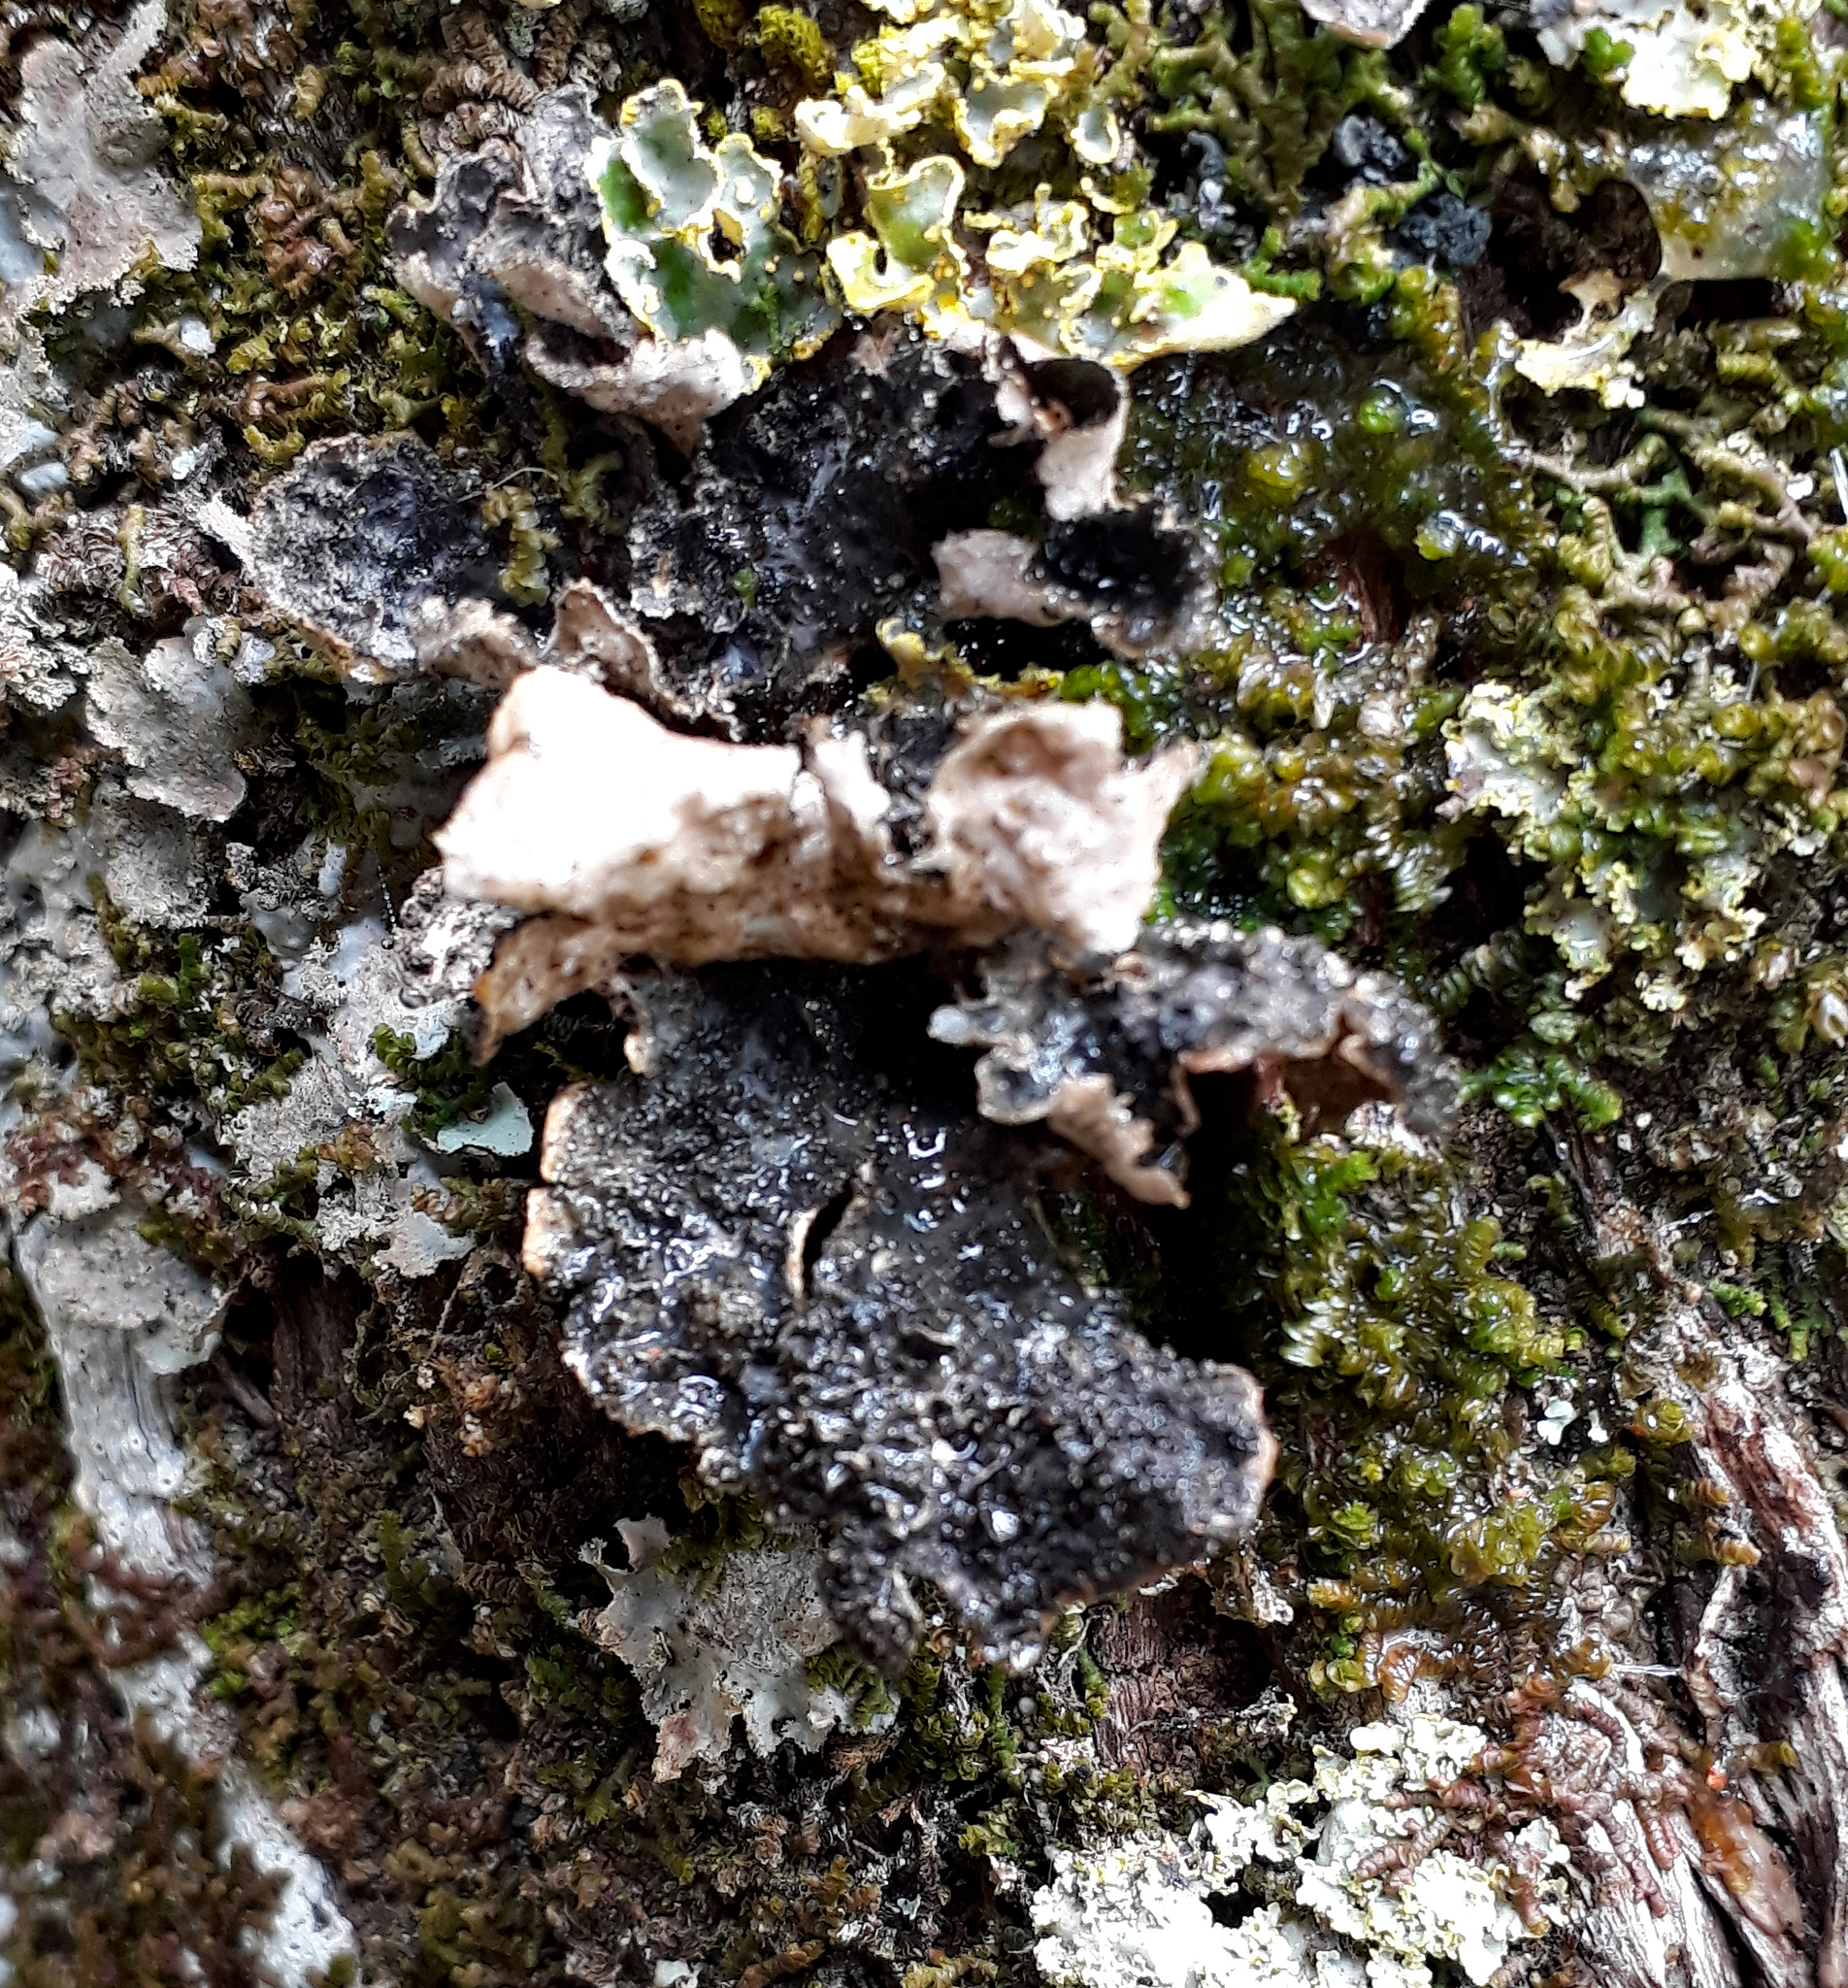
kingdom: Fungi
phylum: Ascomycota
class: Lecanoromycetes
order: Peltigerales
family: Lobariaceae
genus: Sticta
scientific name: Sticta fuliginosa
